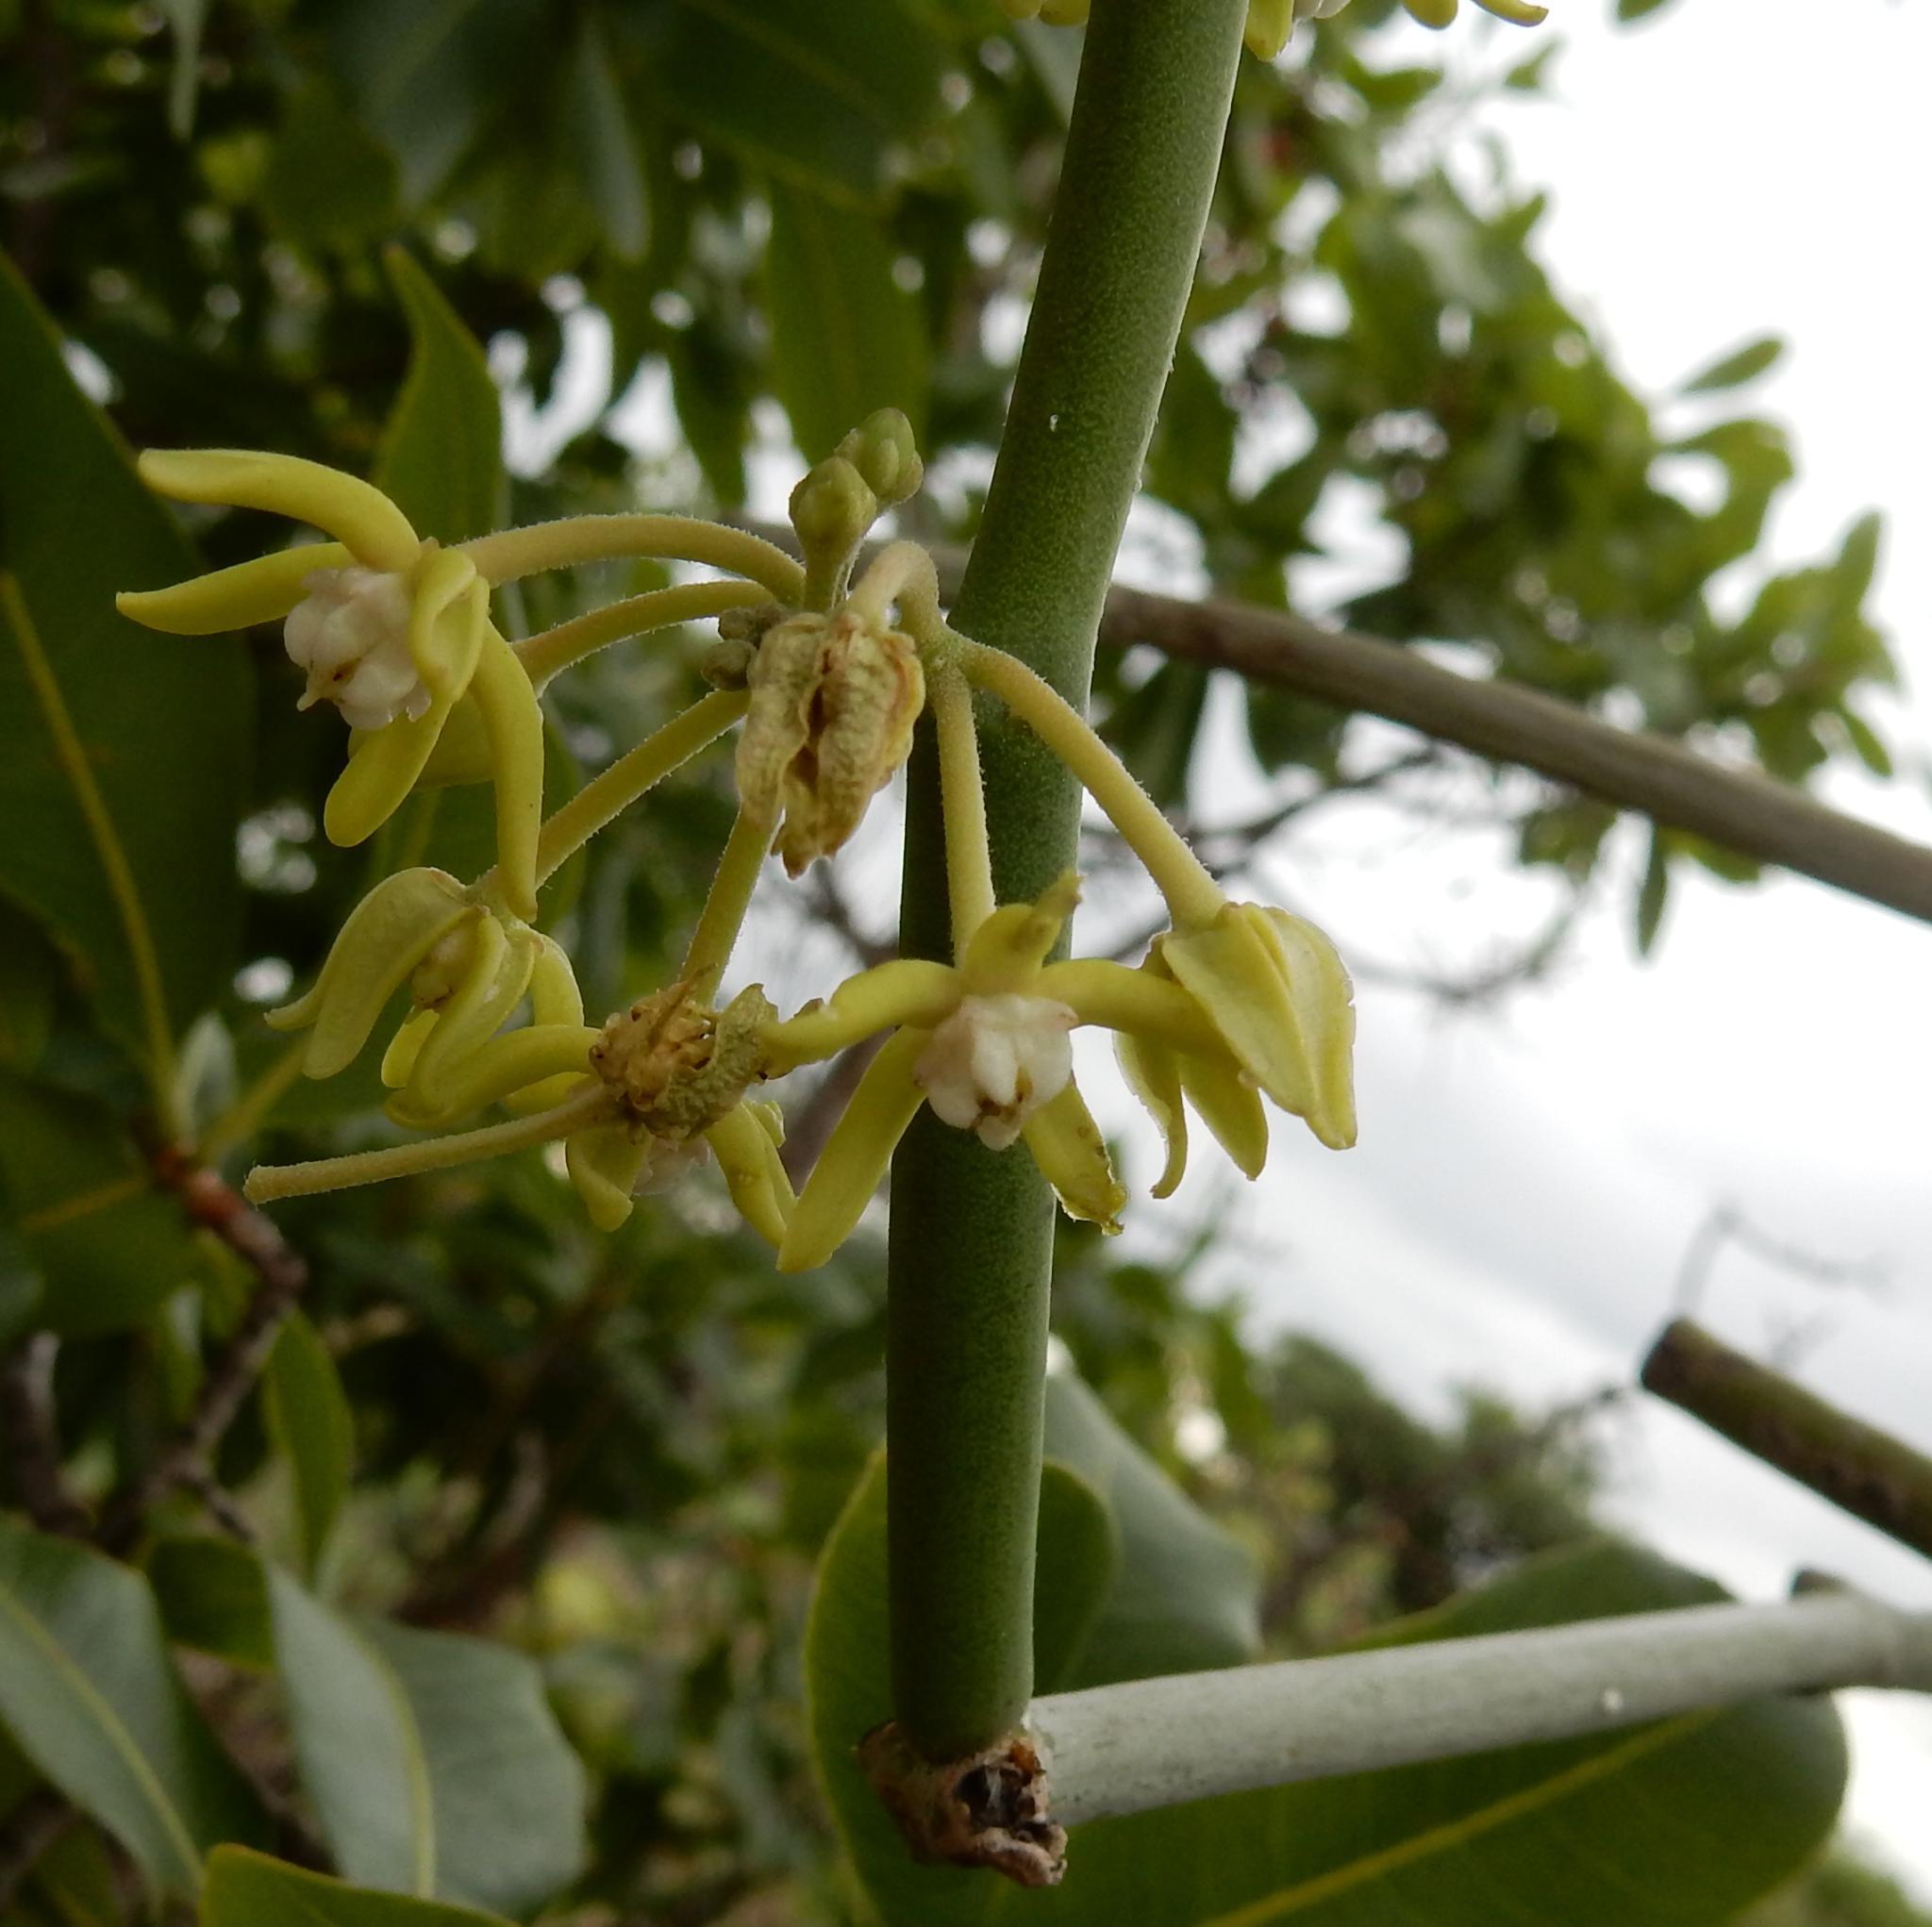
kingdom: Plantae
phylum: Tracheophyta
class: Magnoliopsida
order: Gentianales
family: Apocynaceae
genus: Cynanchum
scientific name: Cynanchum viminale
